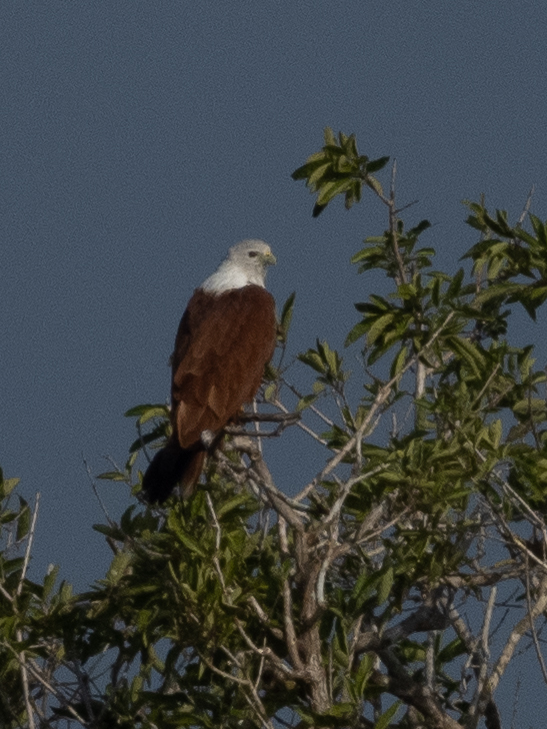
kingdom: Animalia
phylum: Chordata
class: Aves
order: Accipitriformes
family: Accipitridae
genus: Haliastur
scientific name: Haliastur indus
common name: Brahminy kite
